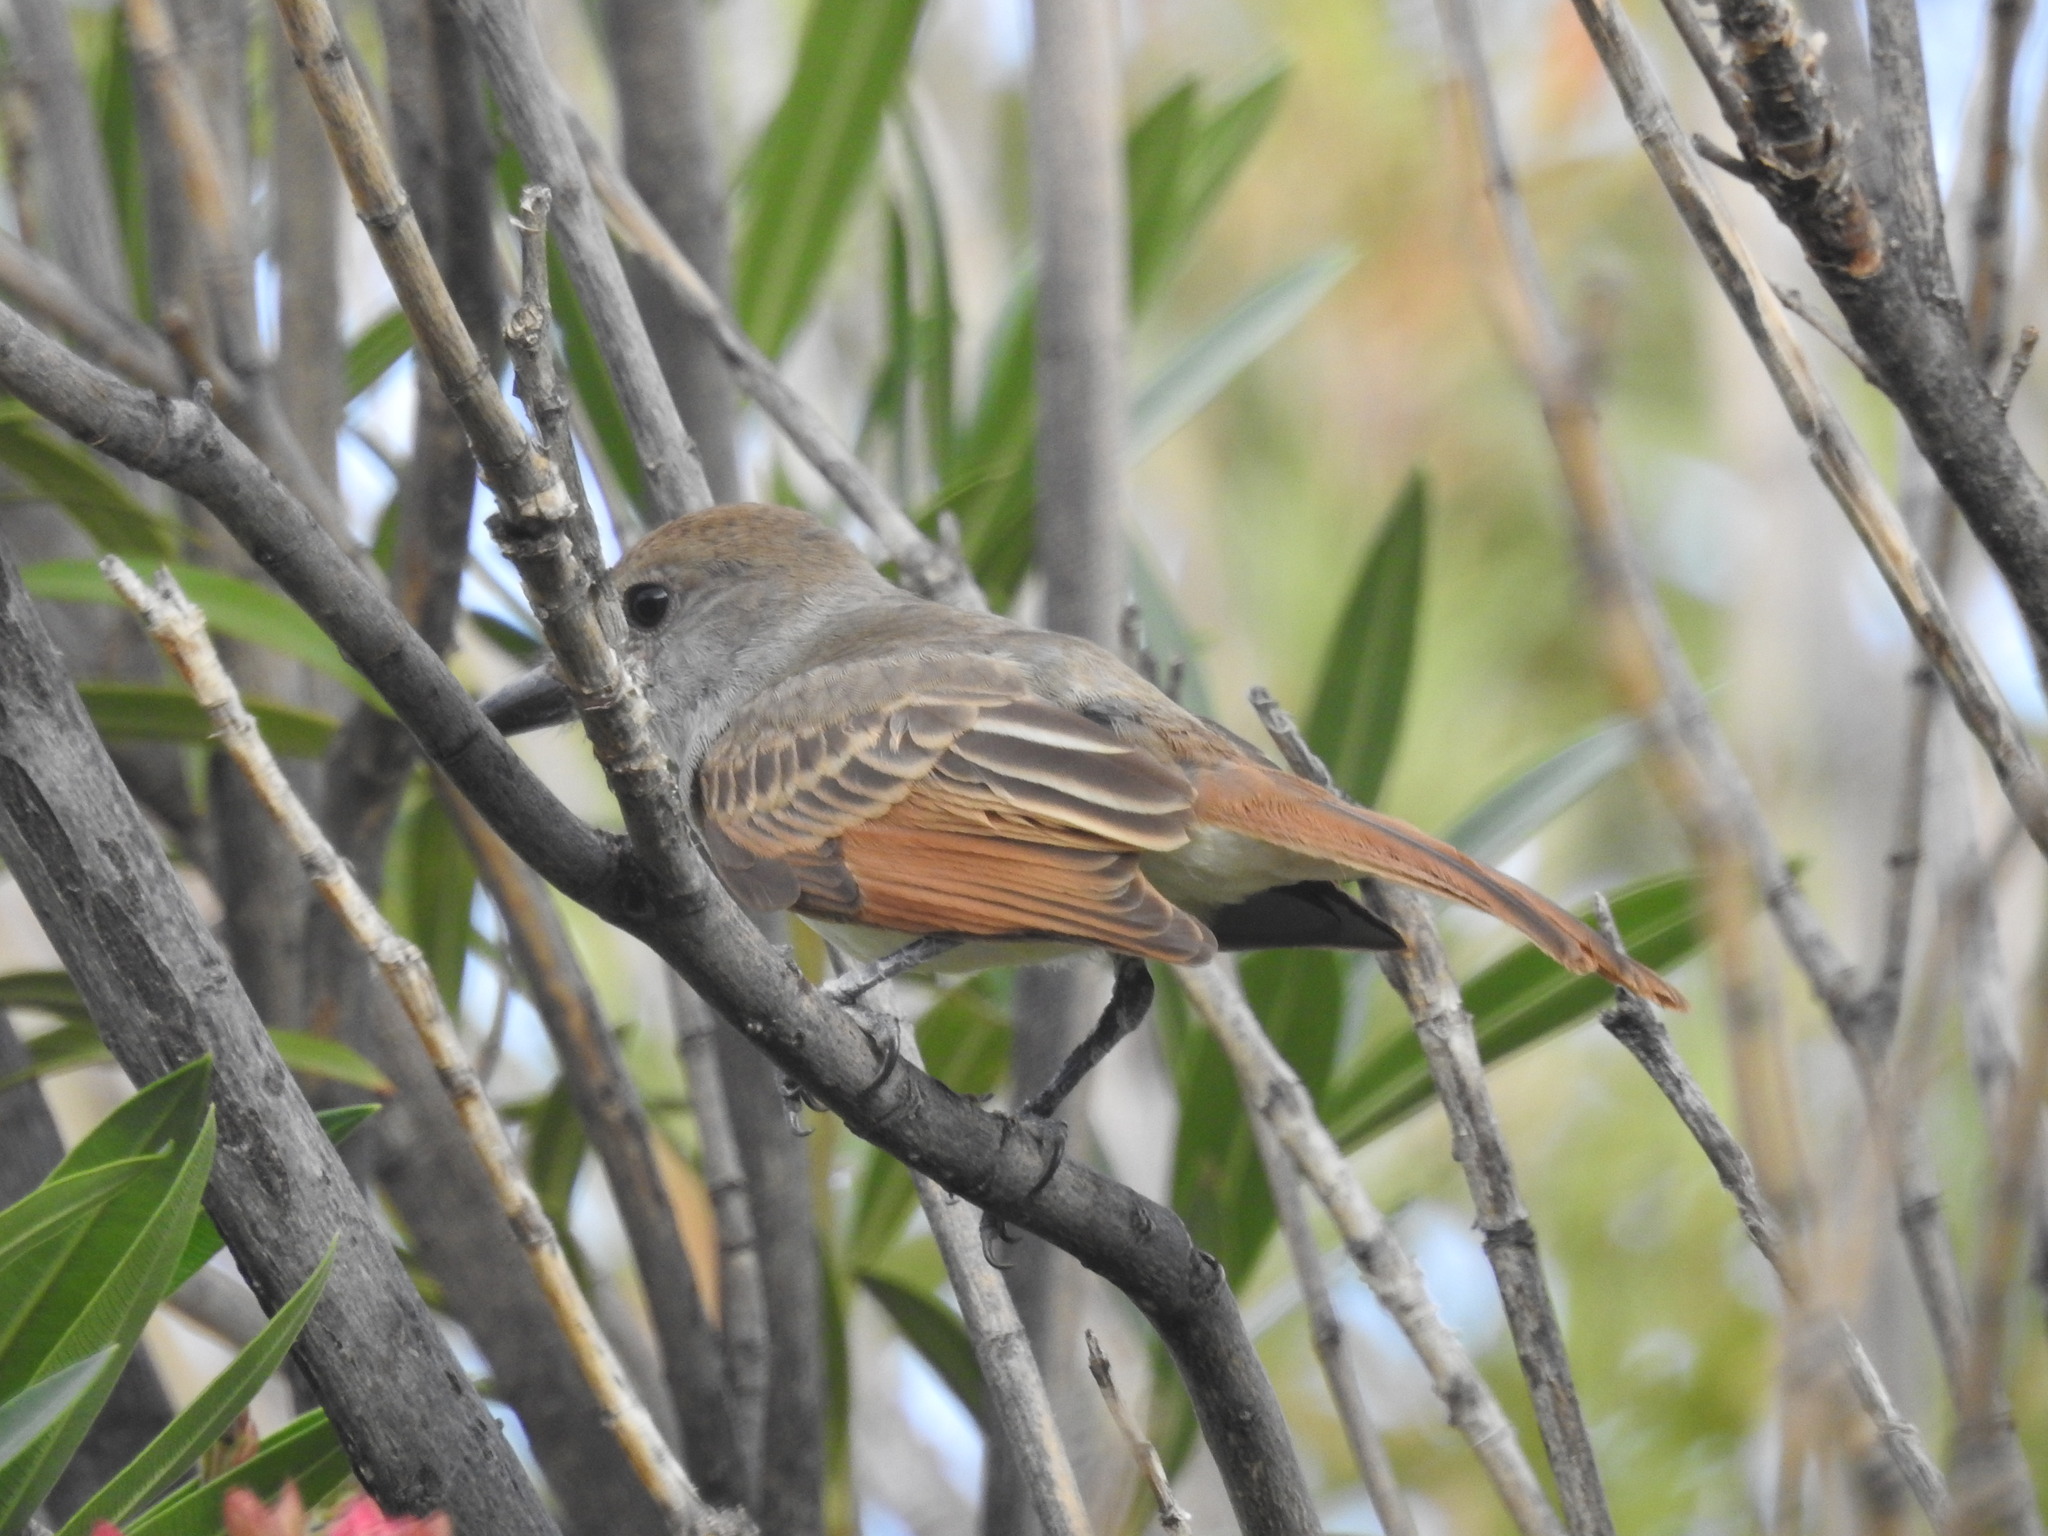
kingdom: Animalia
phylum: Chordata
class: Aves
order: Passeriformes
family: Tyrannidae
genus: Myiarchus
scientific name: Myiarchus tyrannulus
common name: Brown-crested flycatcher
